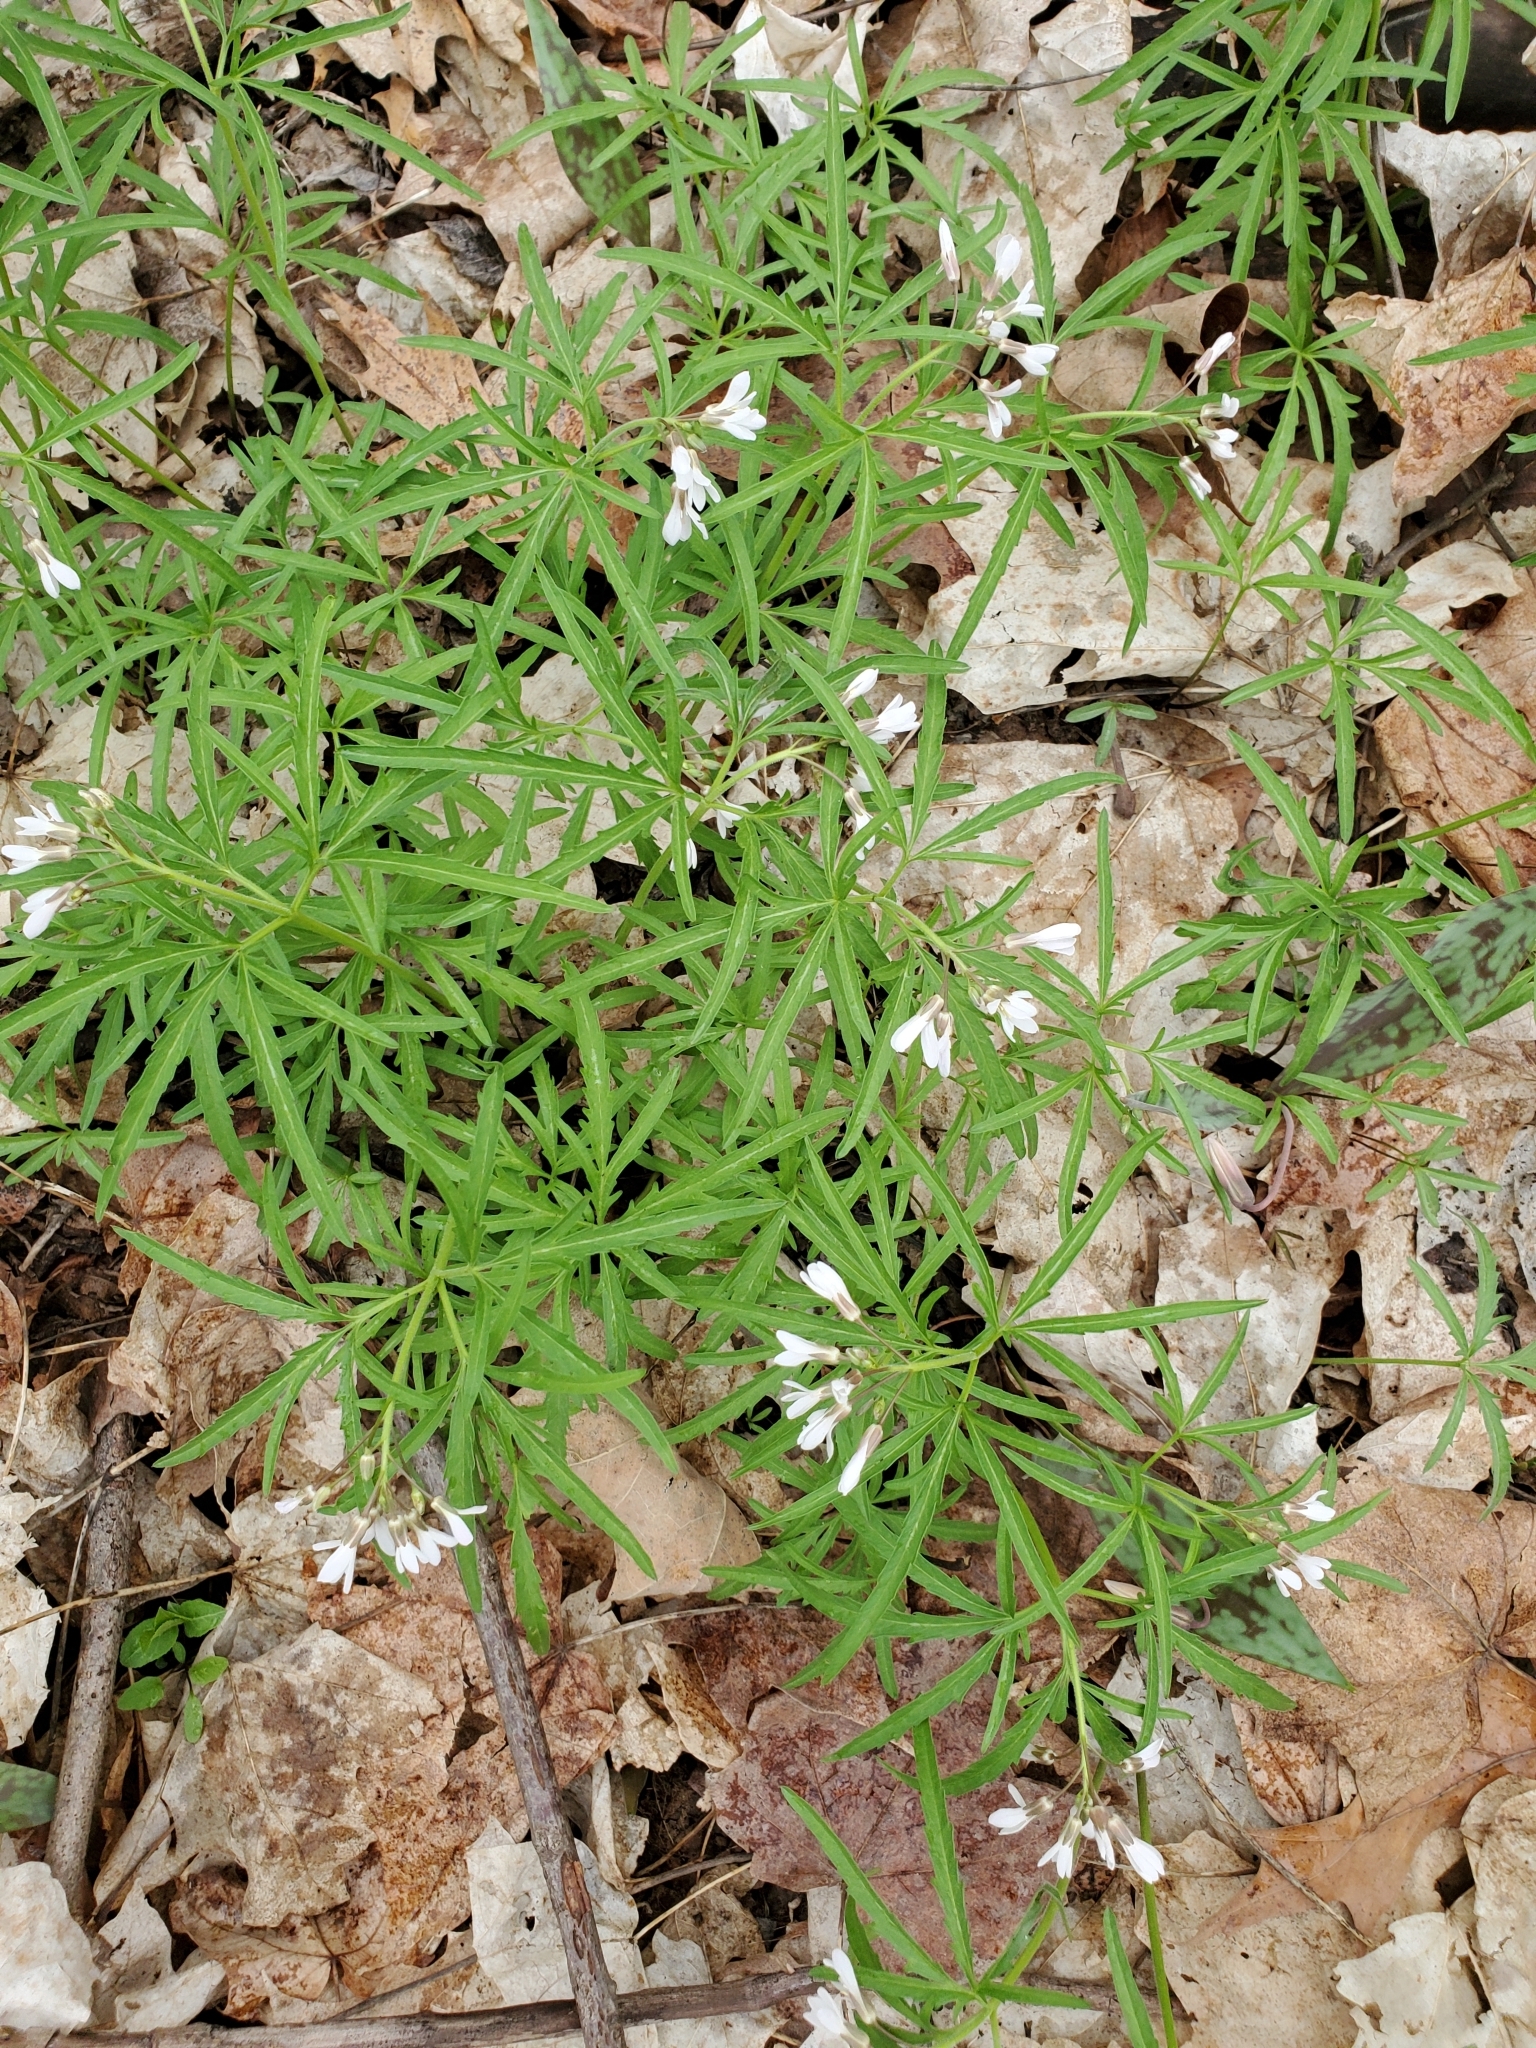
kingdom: Plantae
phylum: Tracheophyta
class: Magnoliopsida
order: Brassicales
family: Brassicaceae
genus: Cardamine
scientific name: Cardamine concatenata
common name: Cut-leaf toothcup
